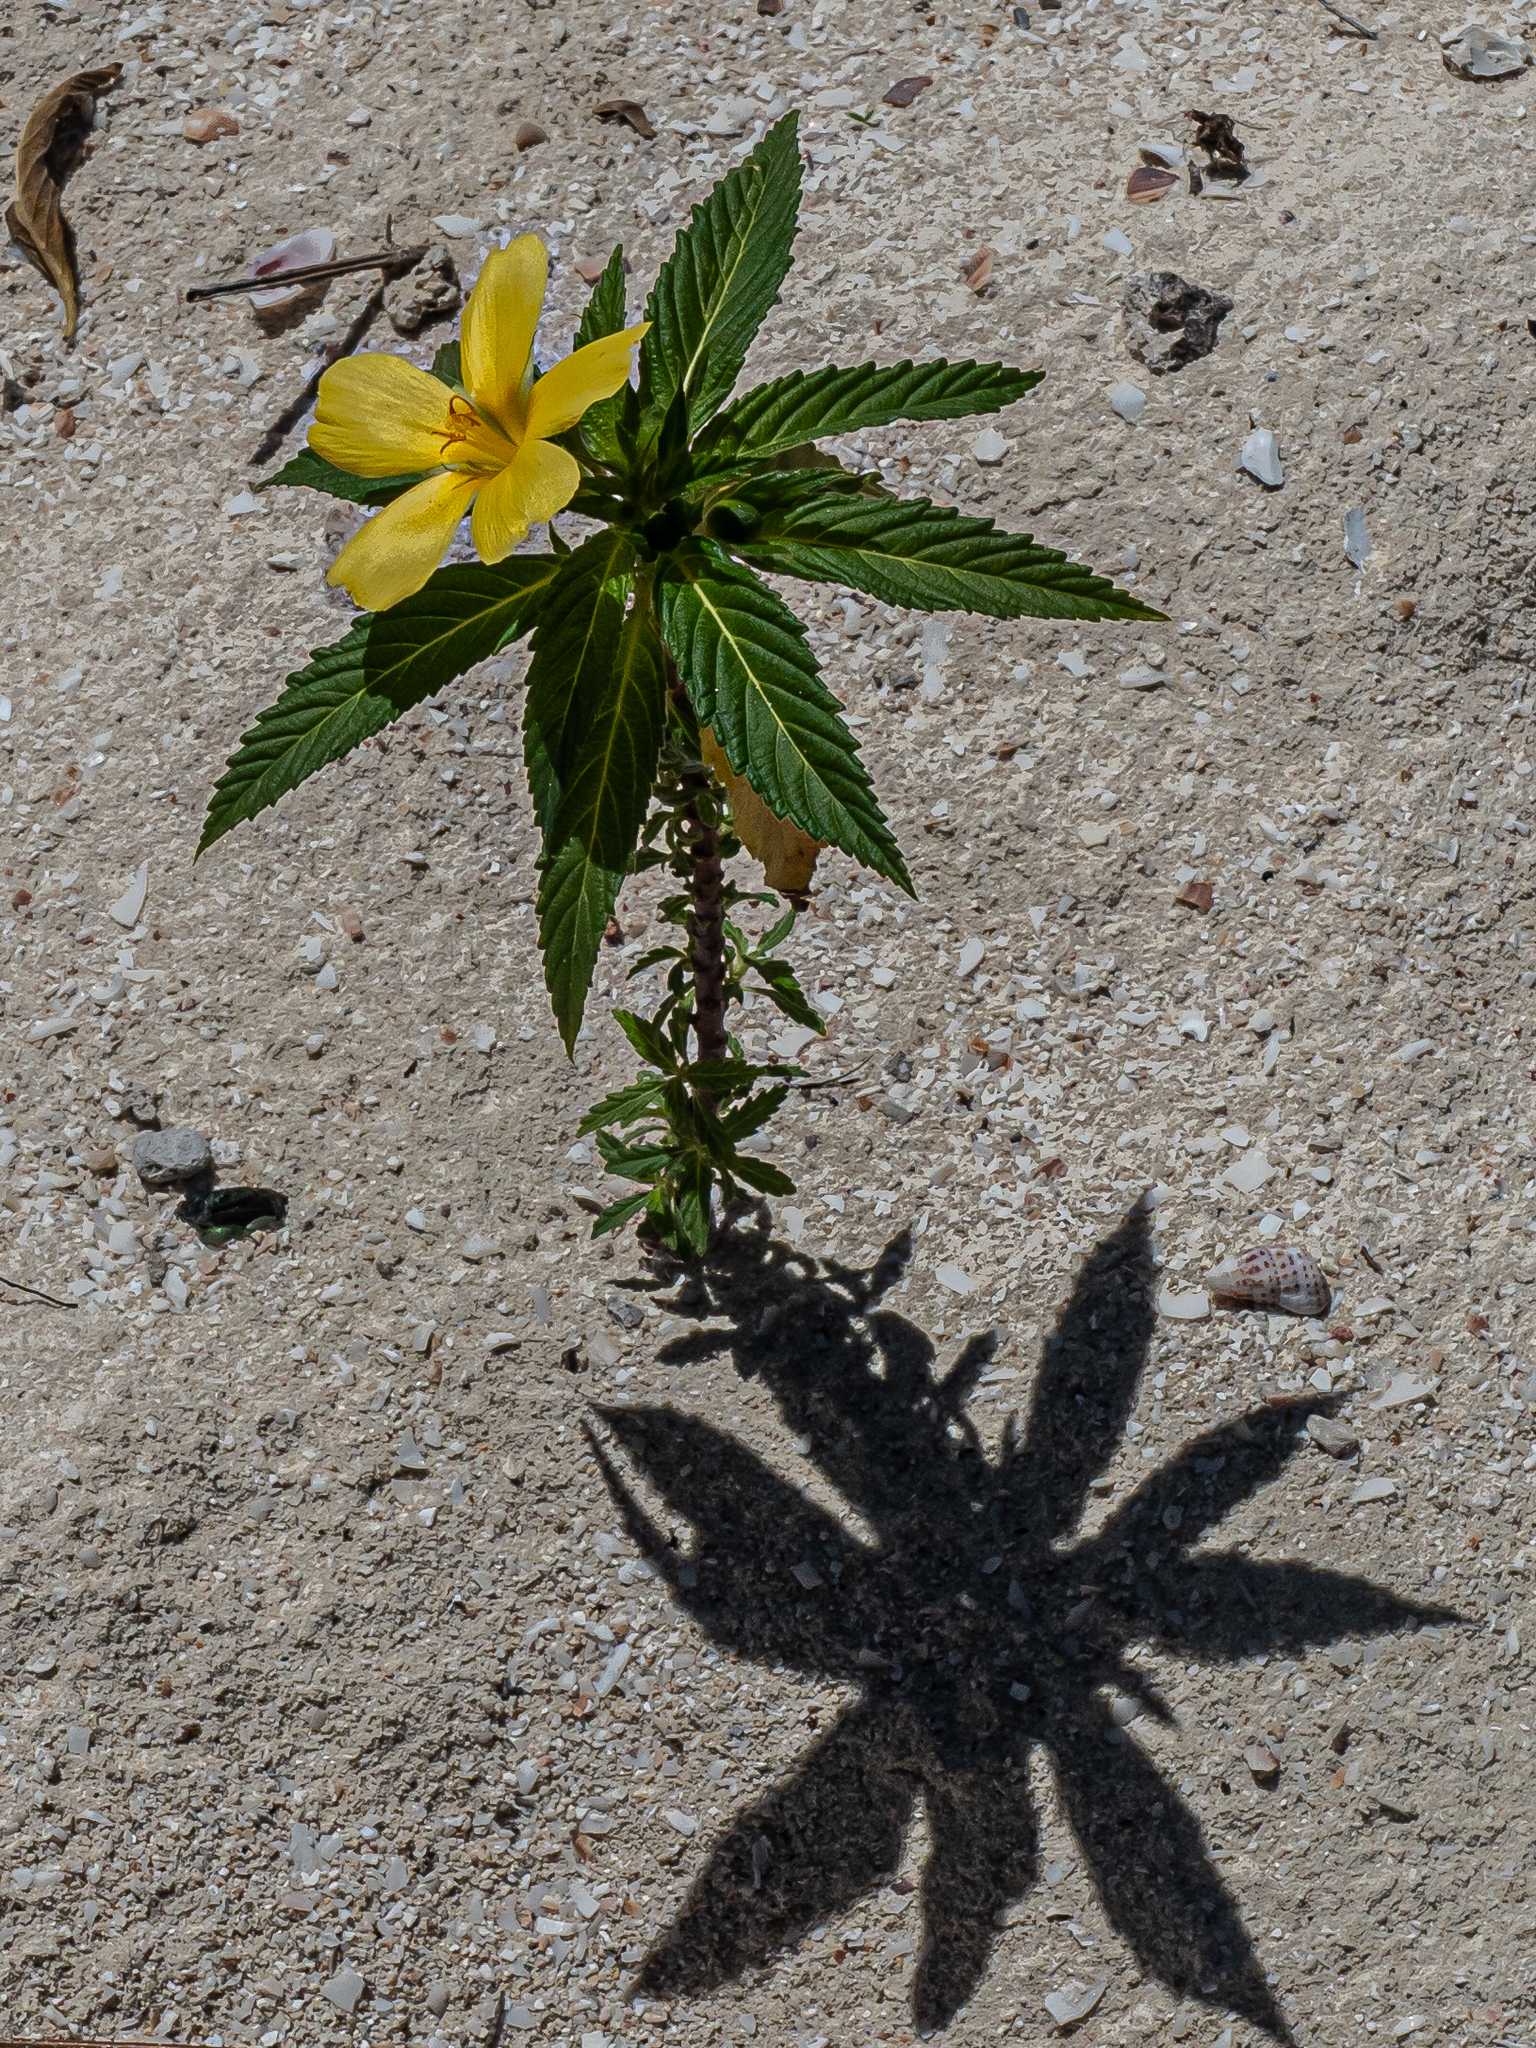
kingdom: Plantae
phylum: Tracheophyta
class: Magnoliopsida
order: Malpighiales
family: Turneraceae
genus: Turnera
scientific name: Turnera ulmifolia
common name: Ramgoat dashalong
